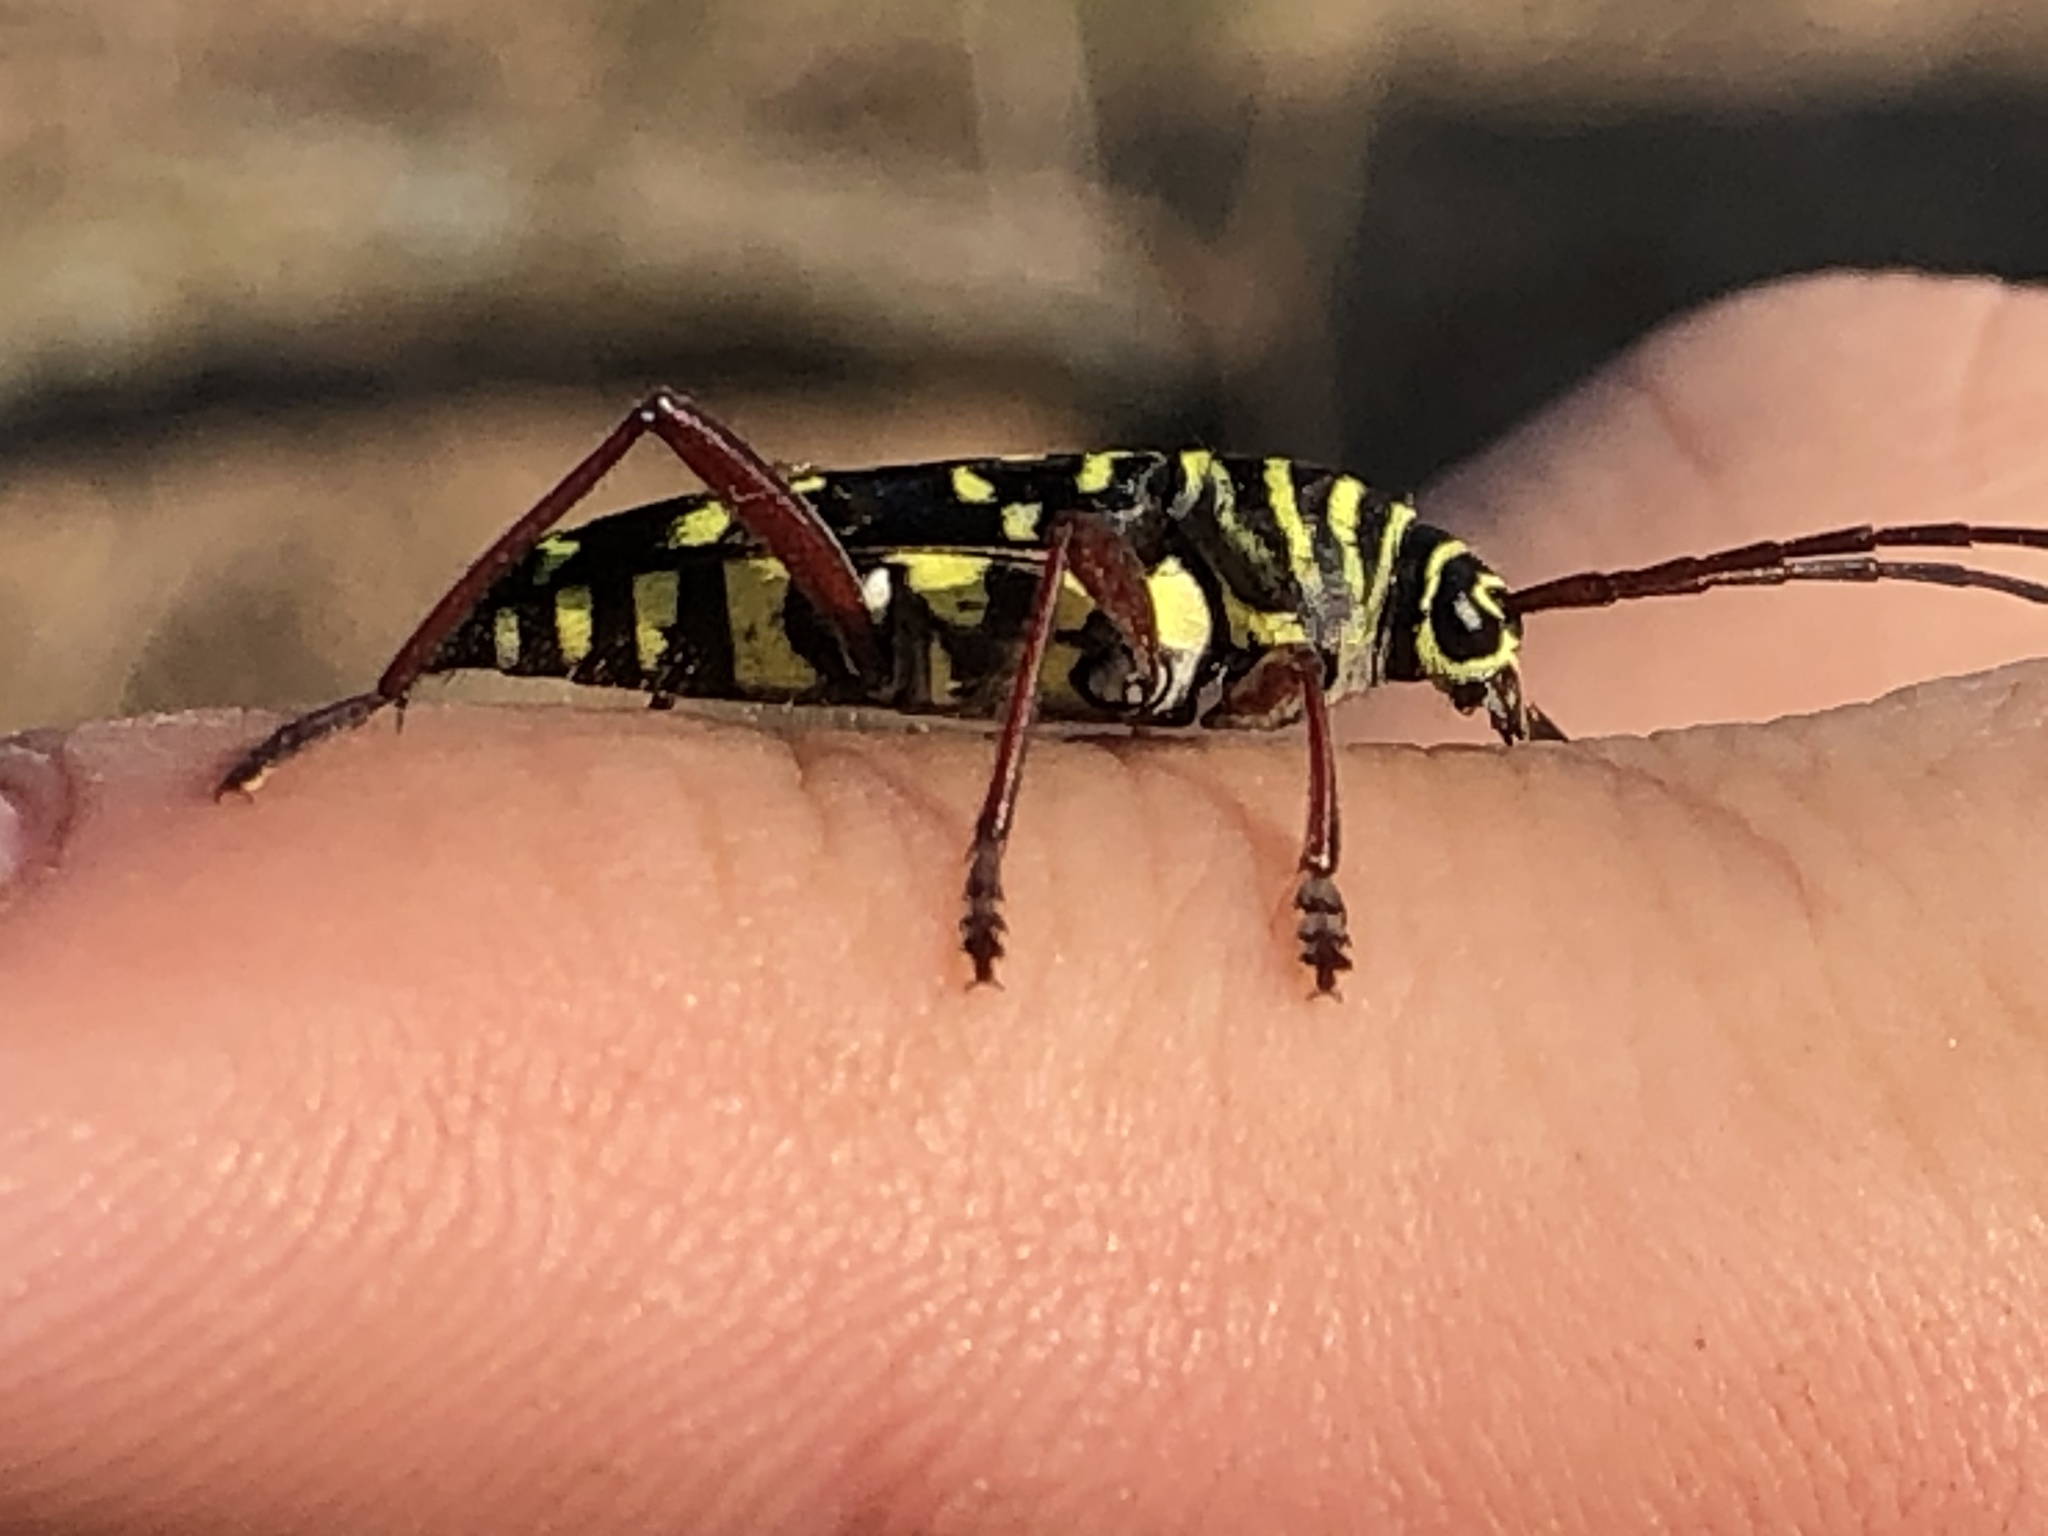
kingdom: Animalia
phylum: Arthropoda
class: Insecta
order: Coleoptera
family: Cerambycidae
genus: Placosternus
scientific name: Placosternus difficilis
